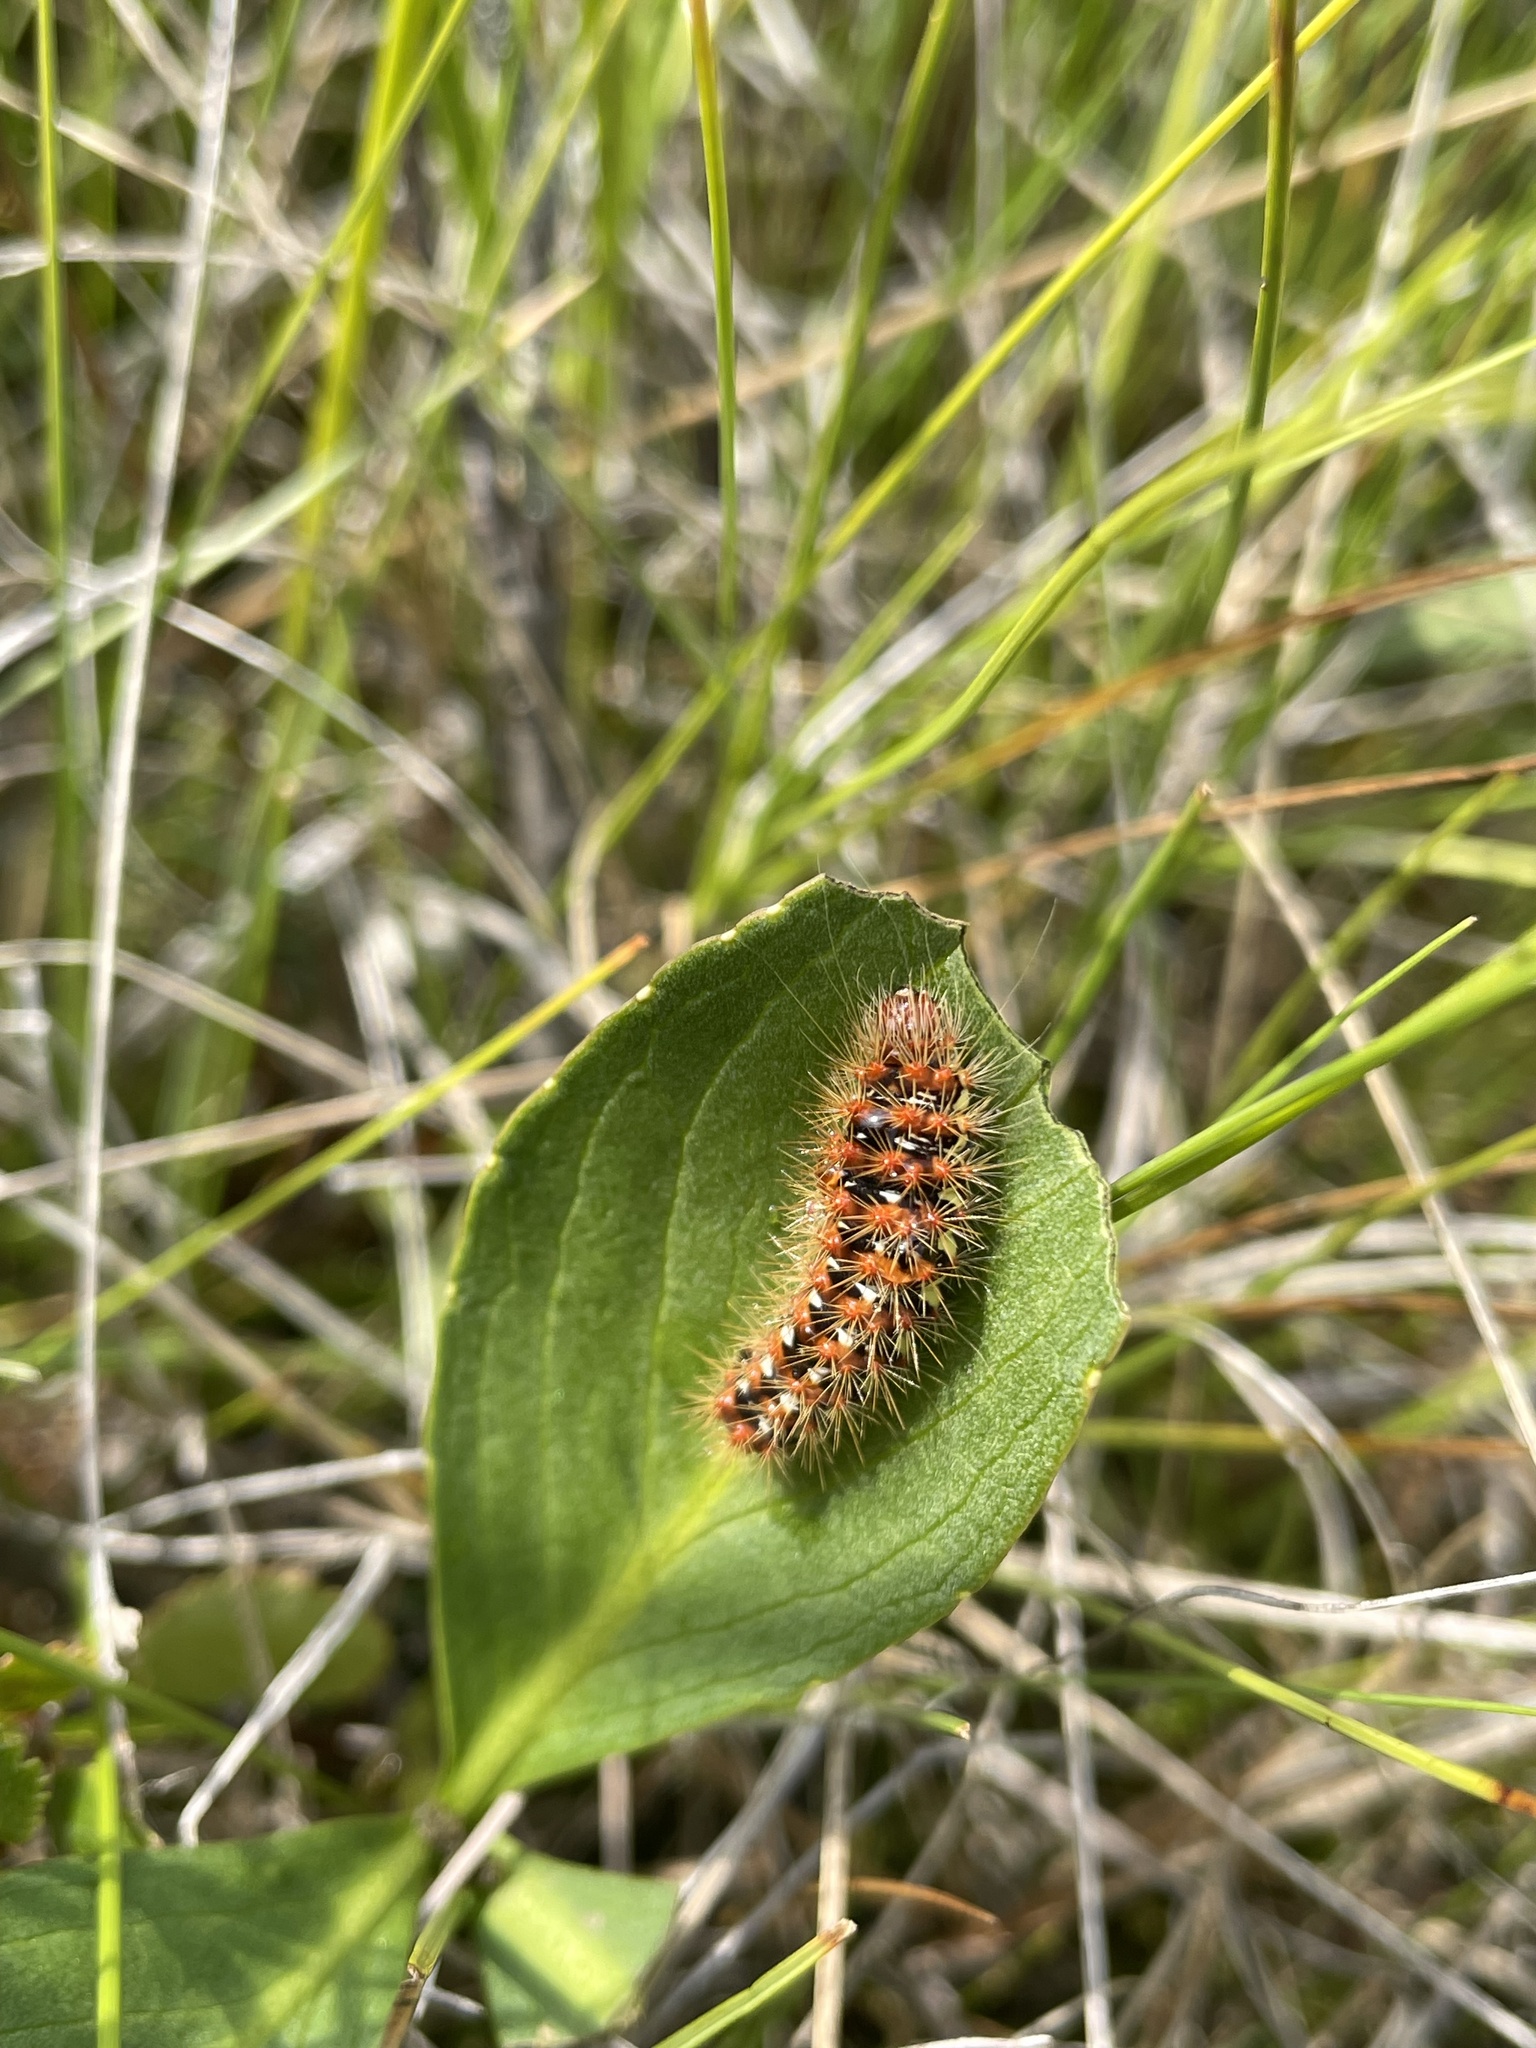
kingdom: Animalia
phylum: Arthropoda
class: Insecta
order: Lepidoptera
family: Noctuidae
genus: Acronicta
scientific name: Acronicta oblinita
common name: Smeared dagger
